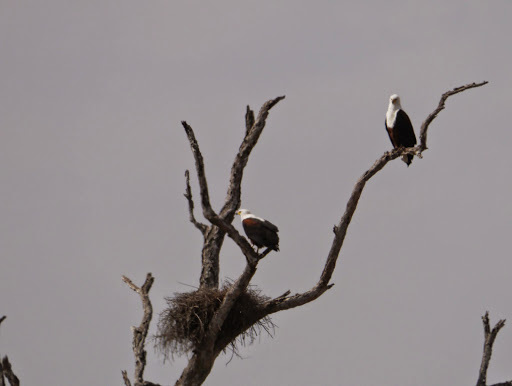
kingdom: Animalia
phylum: Chordata
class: Aves
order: Accipitriformes
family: Accipitridae
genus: Haliaeetus
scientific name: Haliaeetus vocifer
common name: African fish eagle
